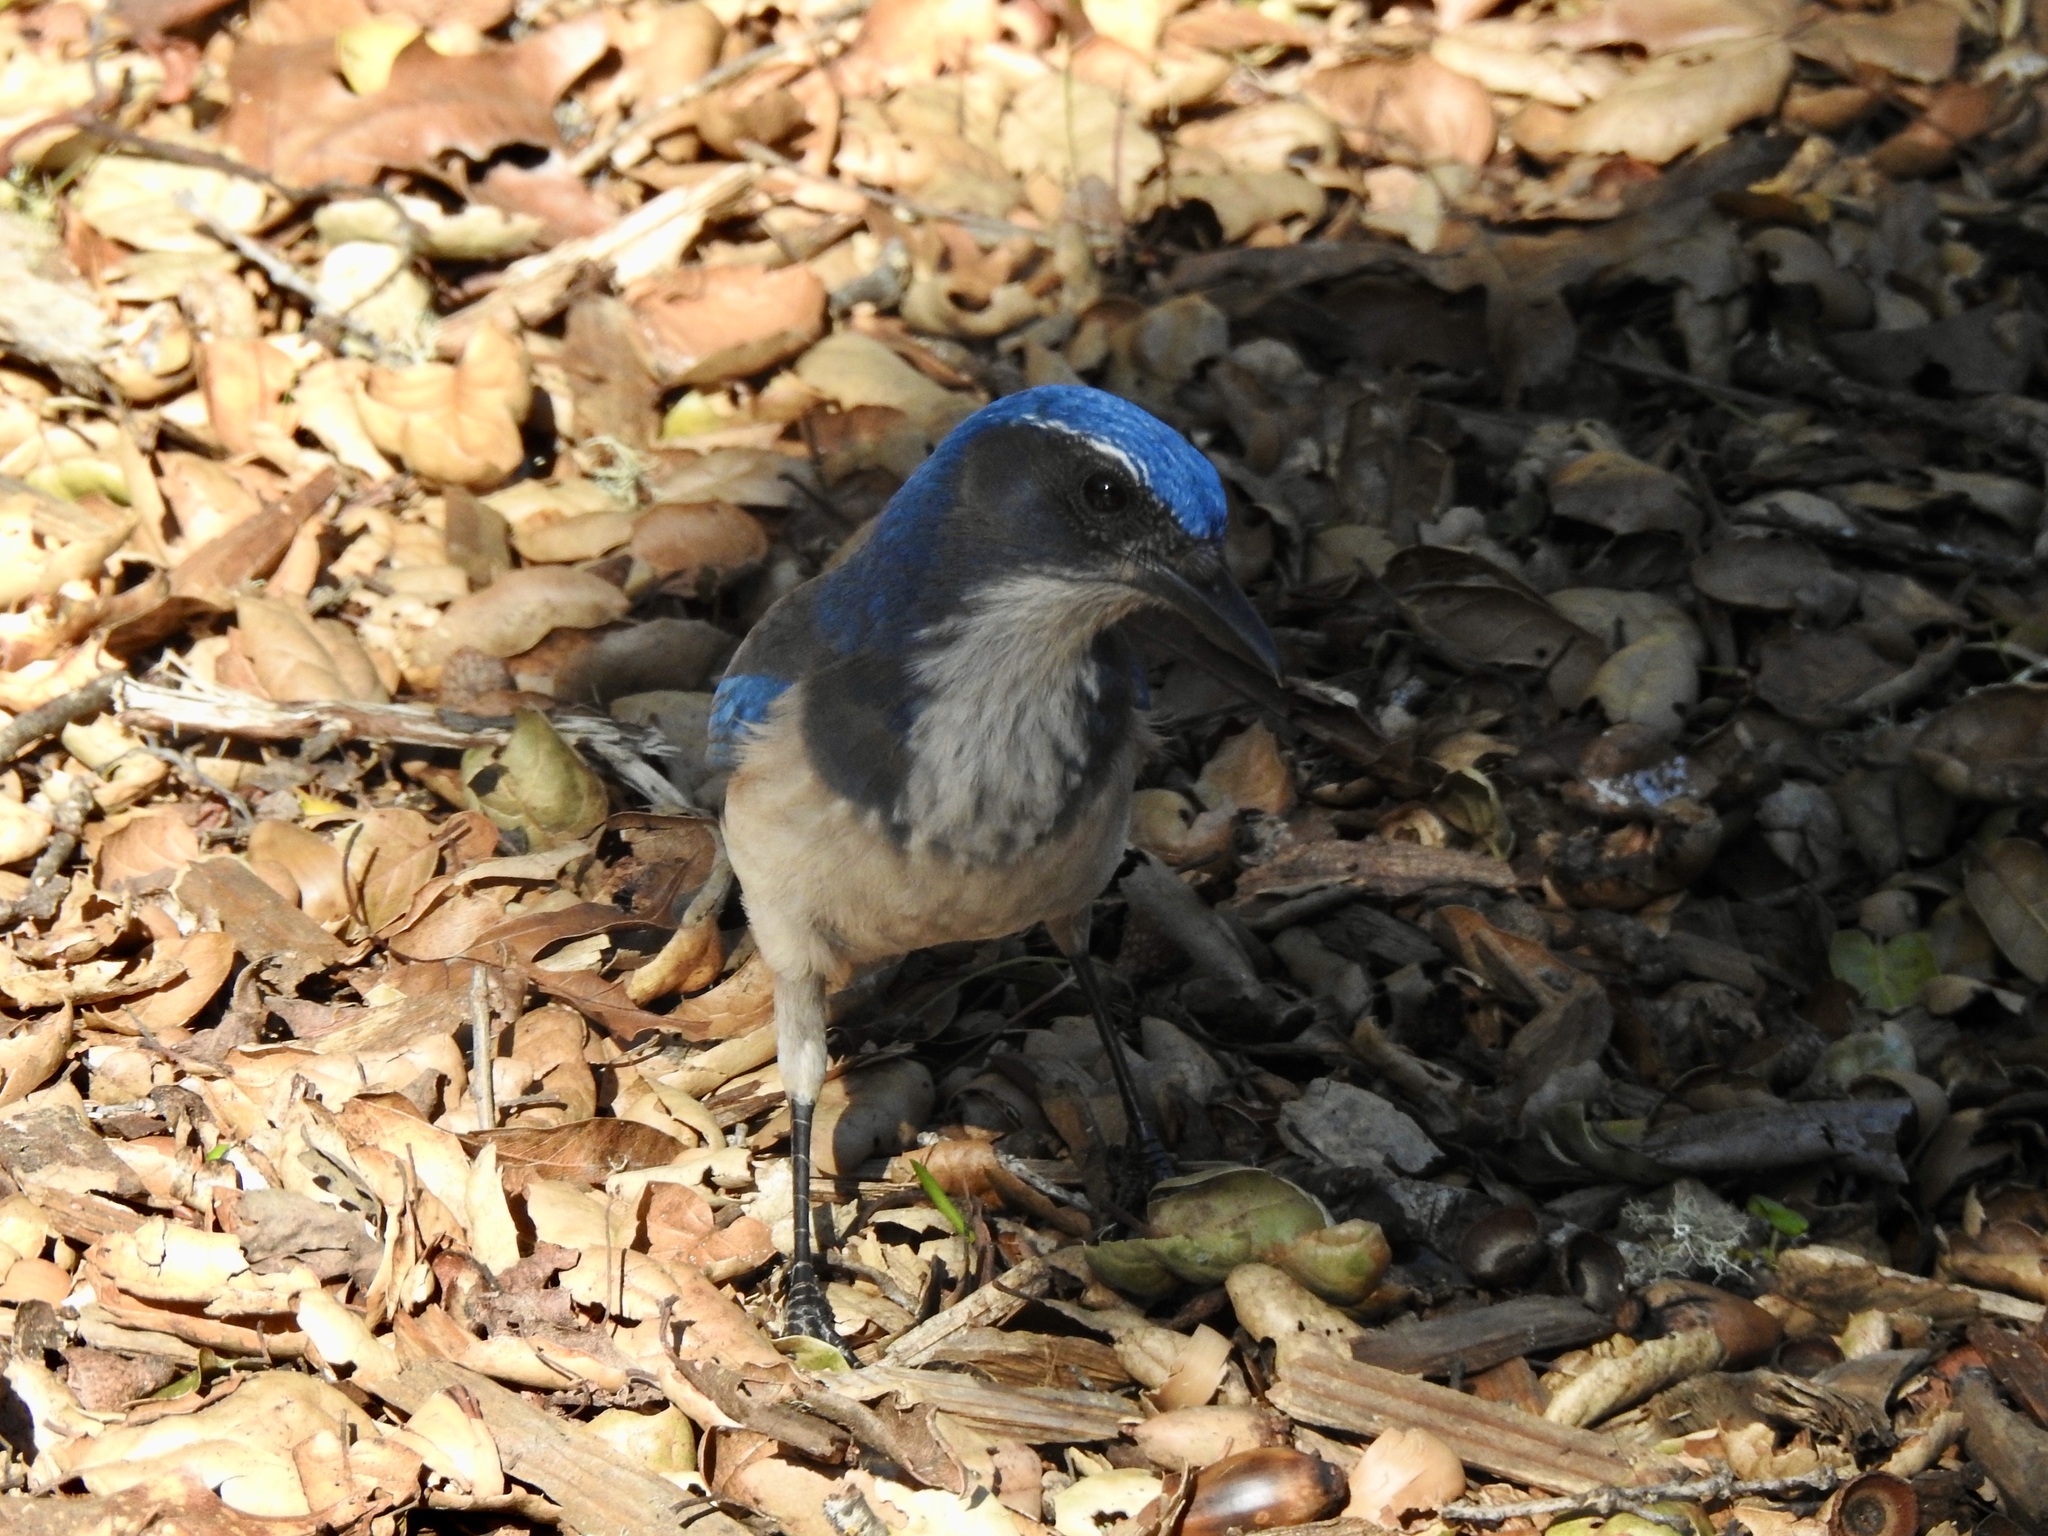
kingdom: Animalia
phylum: Chordata
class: Aves
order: Passeriformes
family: Corvidae
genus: Aphelocoma
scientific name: Aphelocoma californica
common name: California scrub-jay
